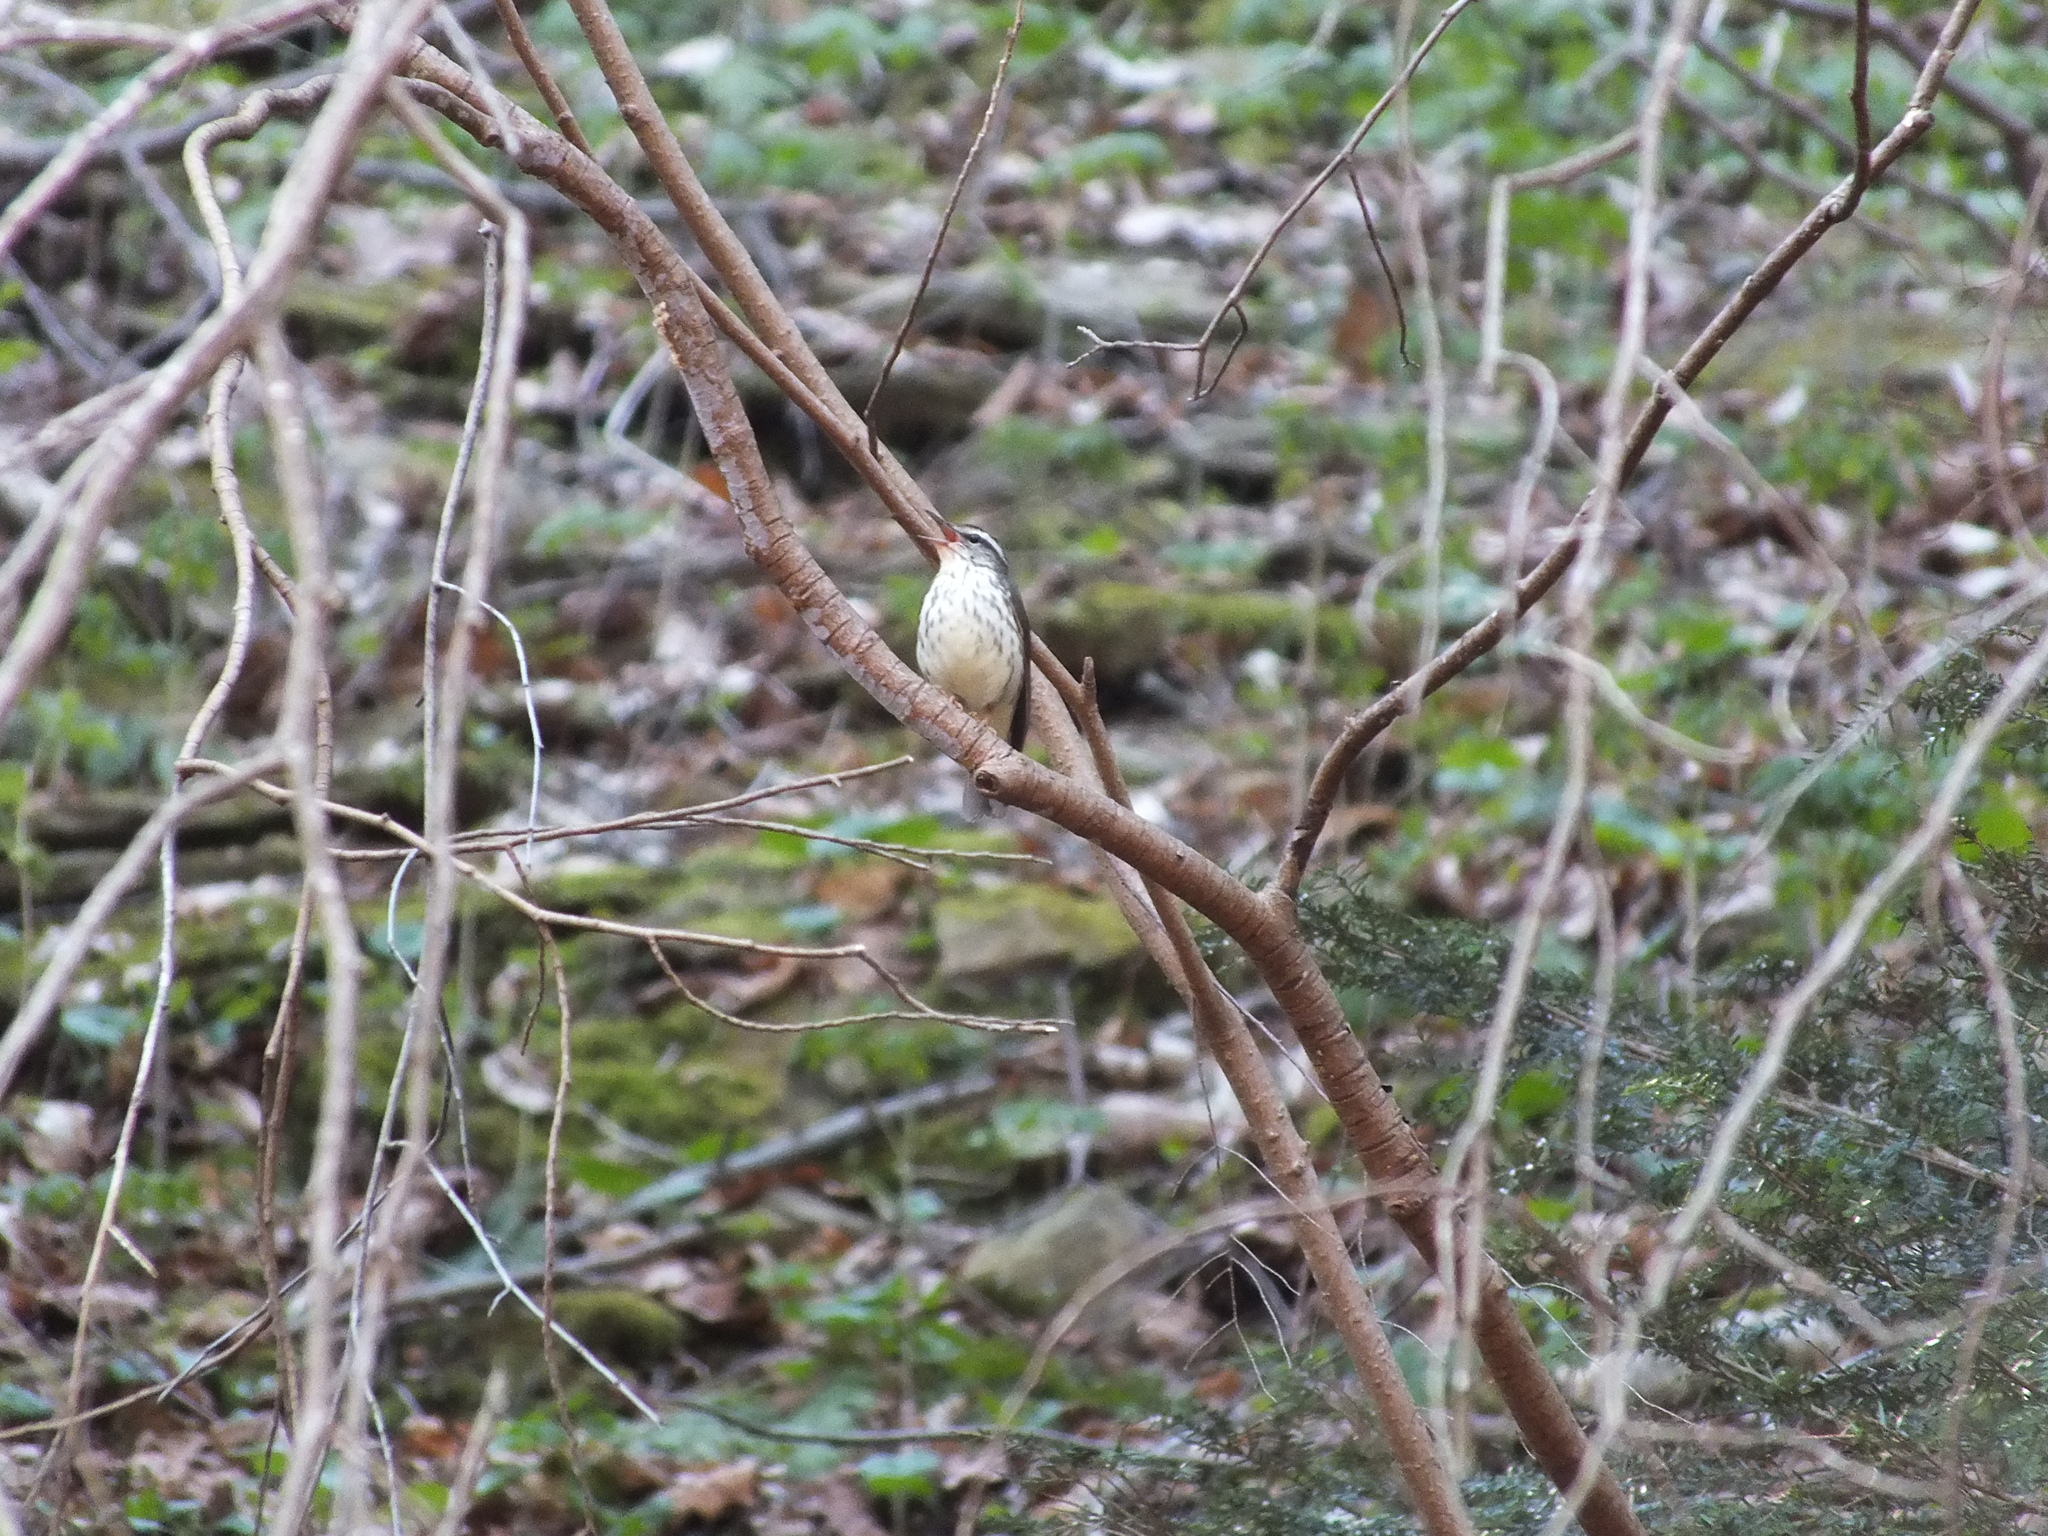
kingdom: Animalia
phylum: Chordata
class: Aves
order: Passeriformes
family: Parulidae
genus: Parkesia
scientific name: Parkesia motacilla
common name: Louisiana waterthrush
